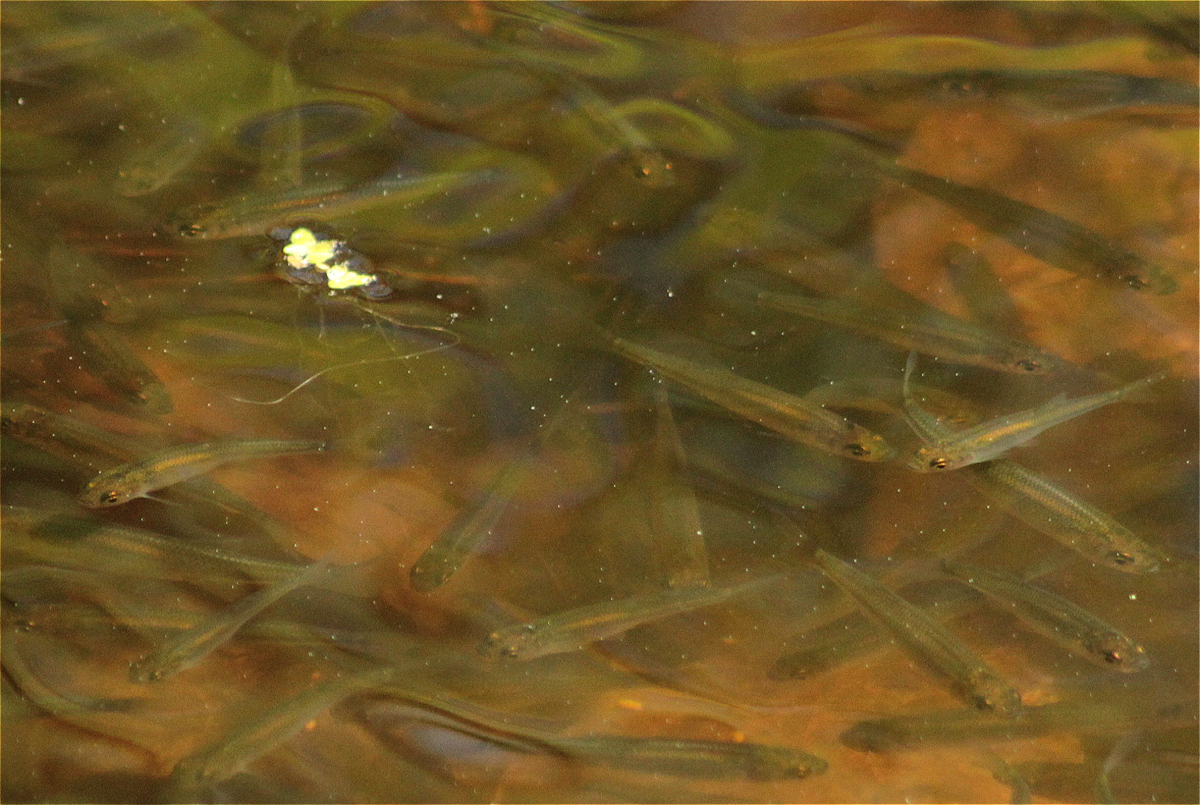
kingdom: Animalia
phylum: Chordata
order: Cypriniformes
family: Cyprinidae
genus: Leucaspius
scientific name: Leucaspius delineatus
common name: Sunbleak
